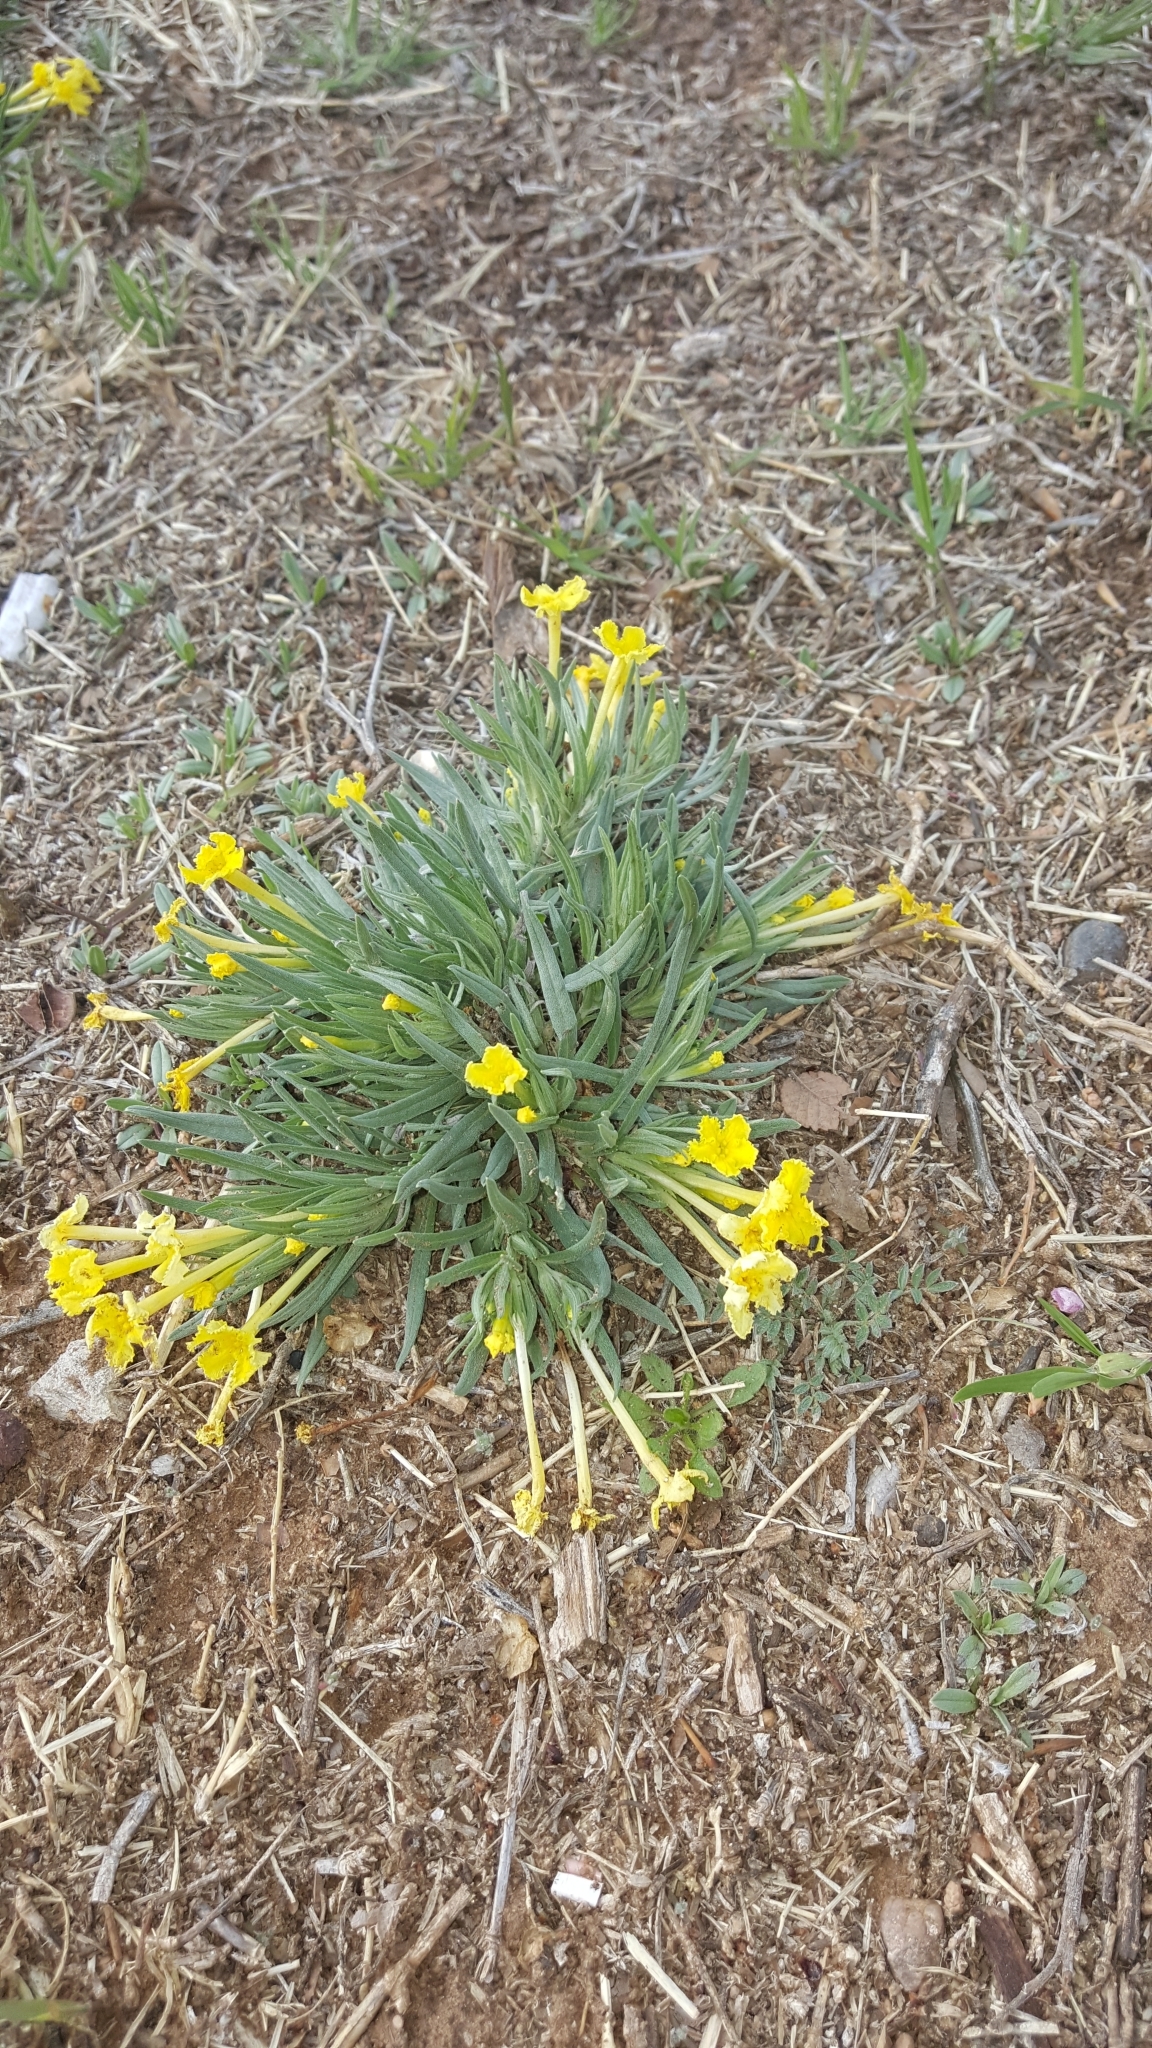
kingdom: Plantae
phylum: Tracheophyta
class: Magnoliopsida
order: Boraginales
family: Boraginaceae
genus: Lithospermum
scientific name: Lithospermum incisum
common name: Fringed gromwell
